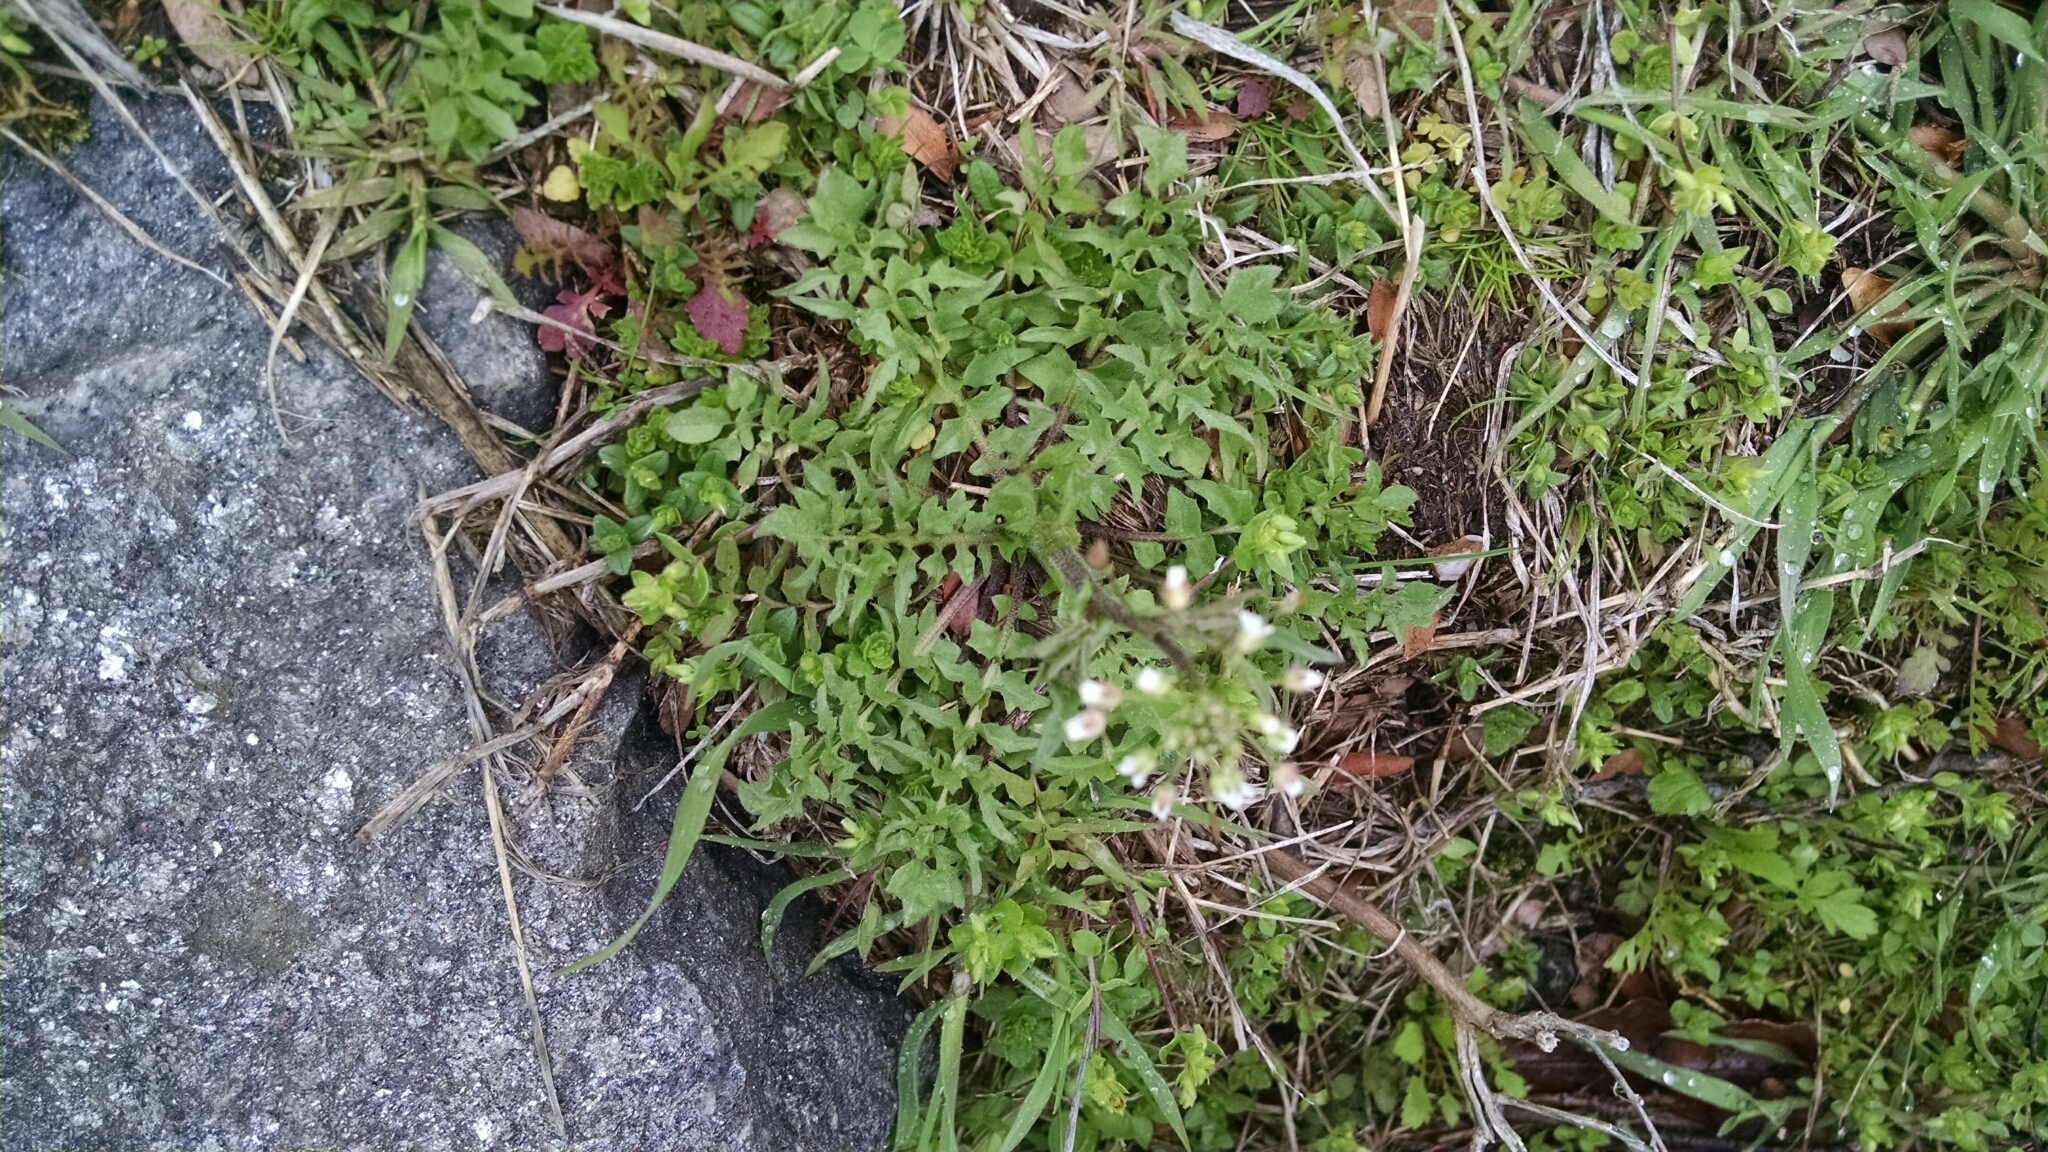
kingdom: Plantae
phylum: Tracheophyta
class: Magnoliopsida
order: Brassicales
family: Brassicaceae
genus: Capsella
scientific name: Capsella bursa-pastoris
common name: Shepherd's purse
